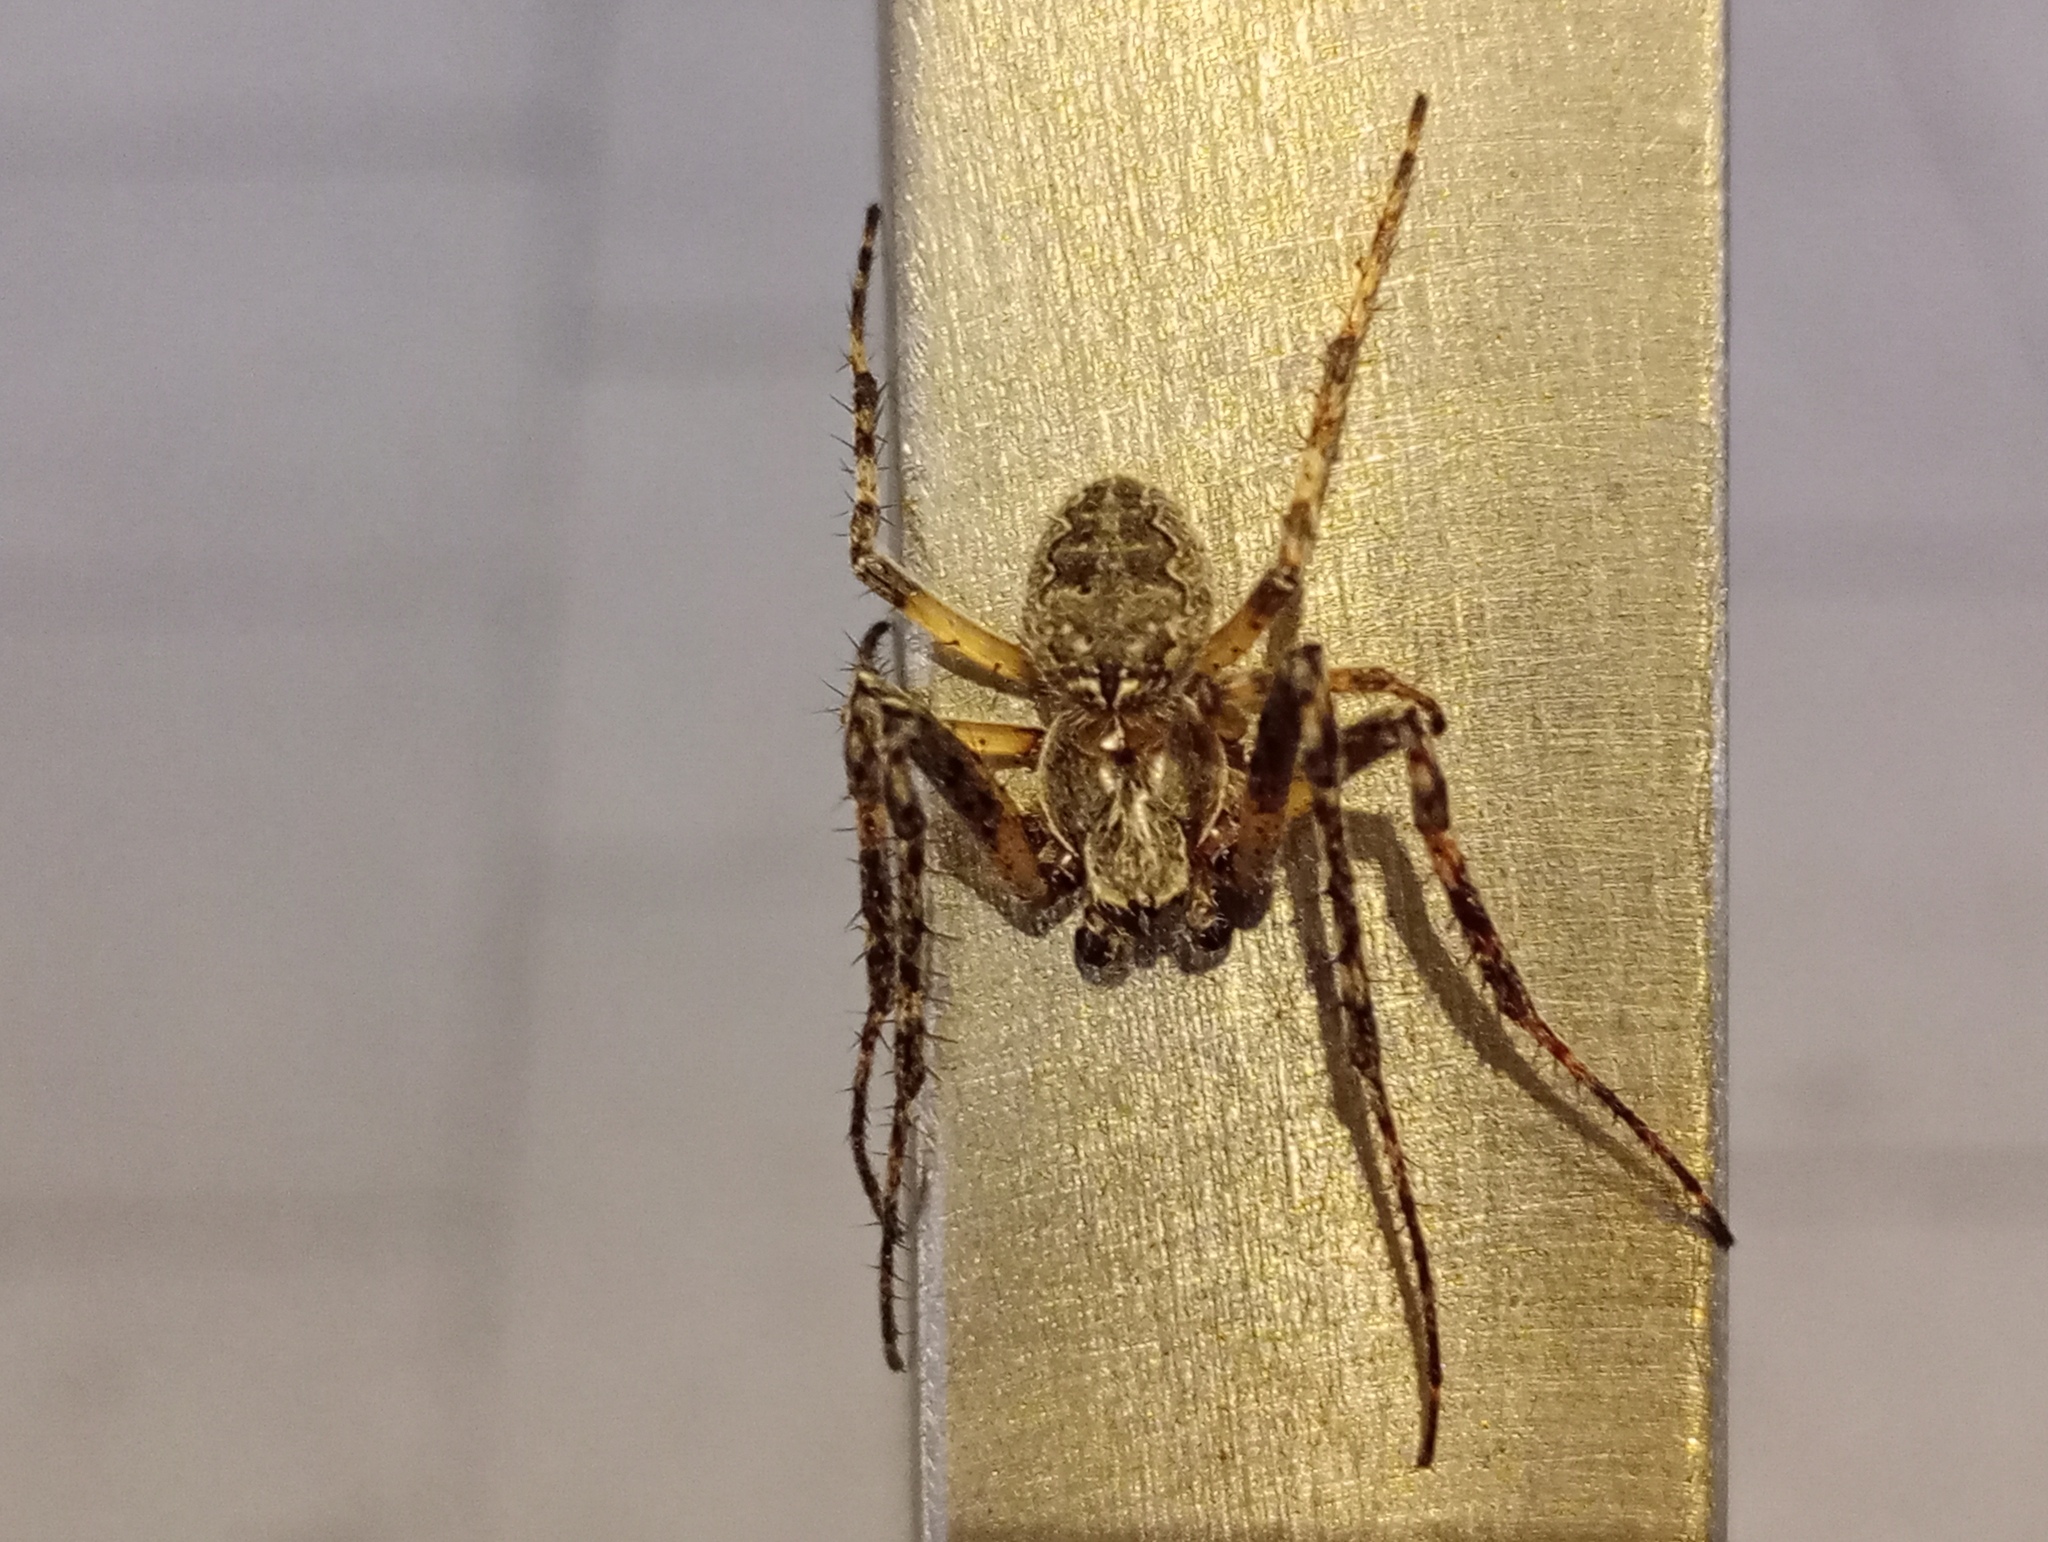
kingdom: Animalia
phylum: Arthropoda
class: Arachnida
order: Araneae
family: Araneidae
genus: Larinioides
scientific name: Larinioides ixobolus
